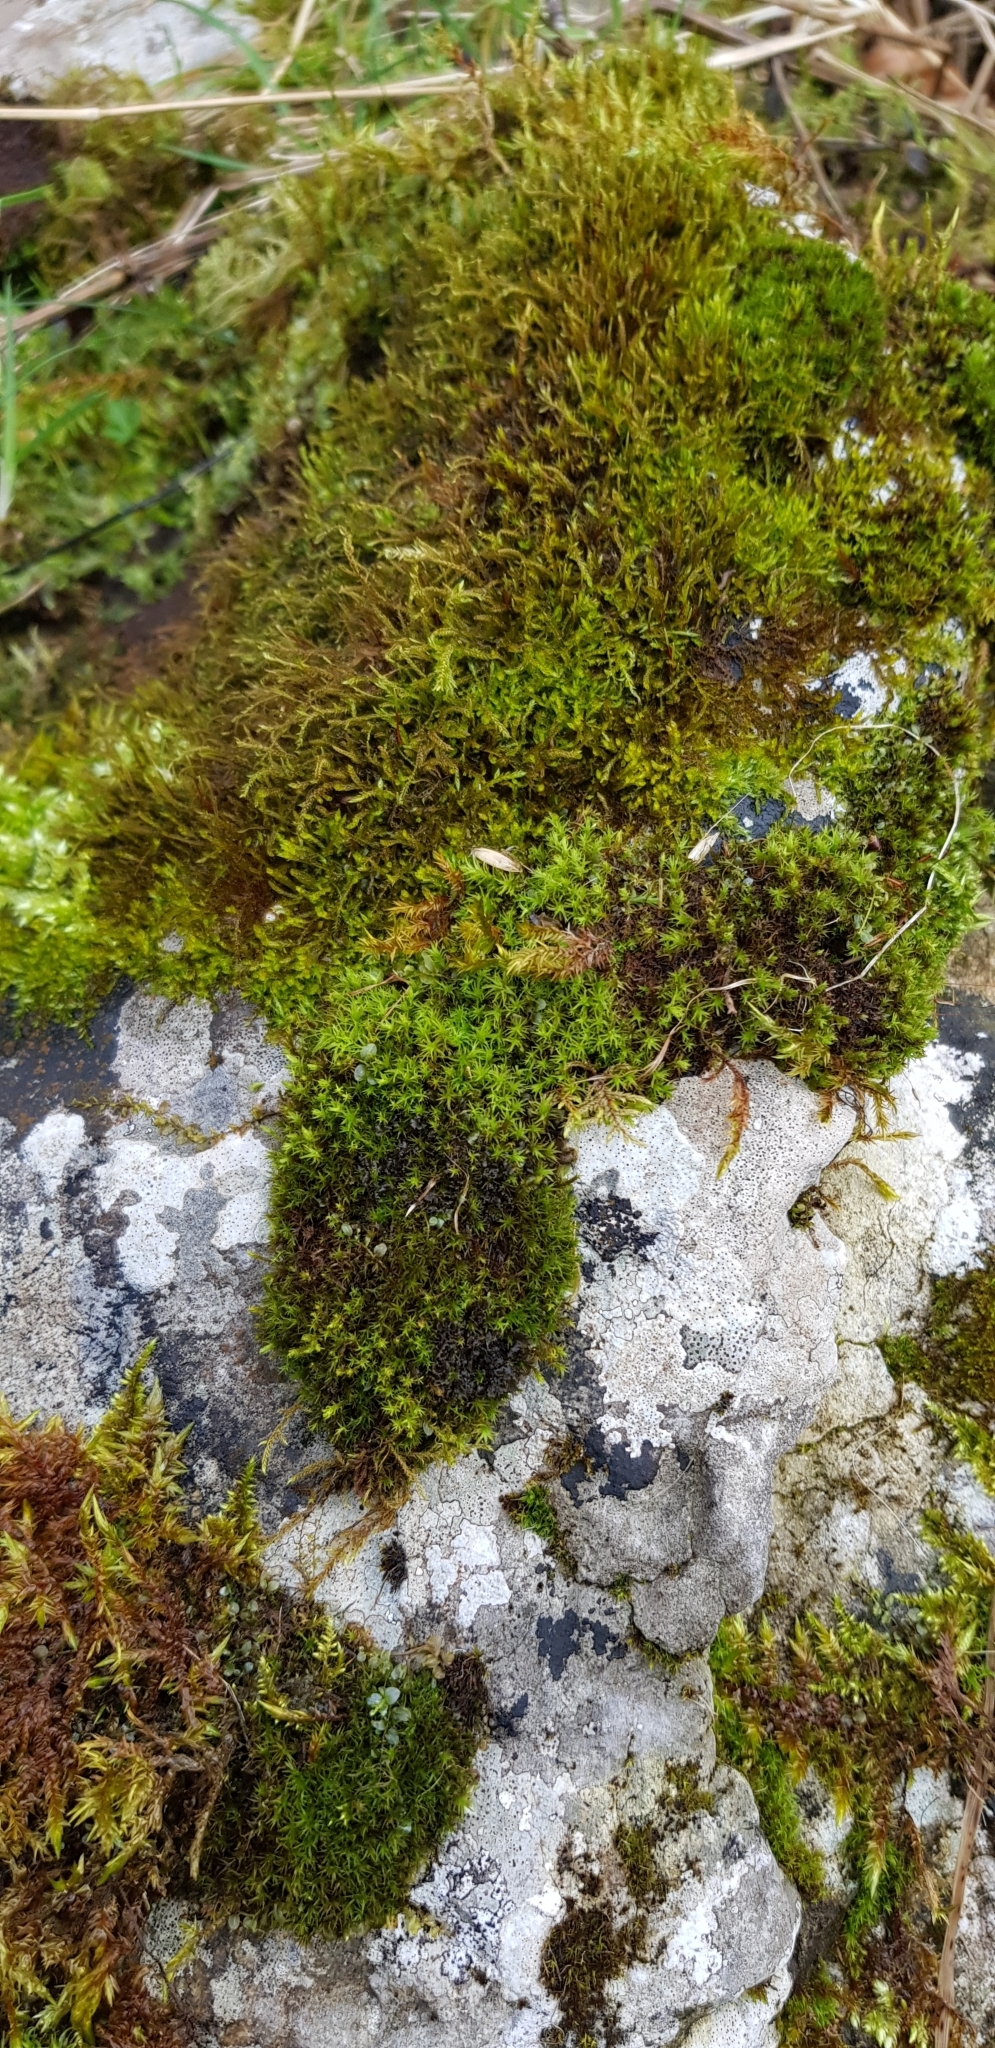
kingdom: Plantae
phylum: Bryophyta
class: Bryopsida
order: Pottiales
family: Pottiaceae
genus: Geheebia
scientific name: Geheebia fallax
